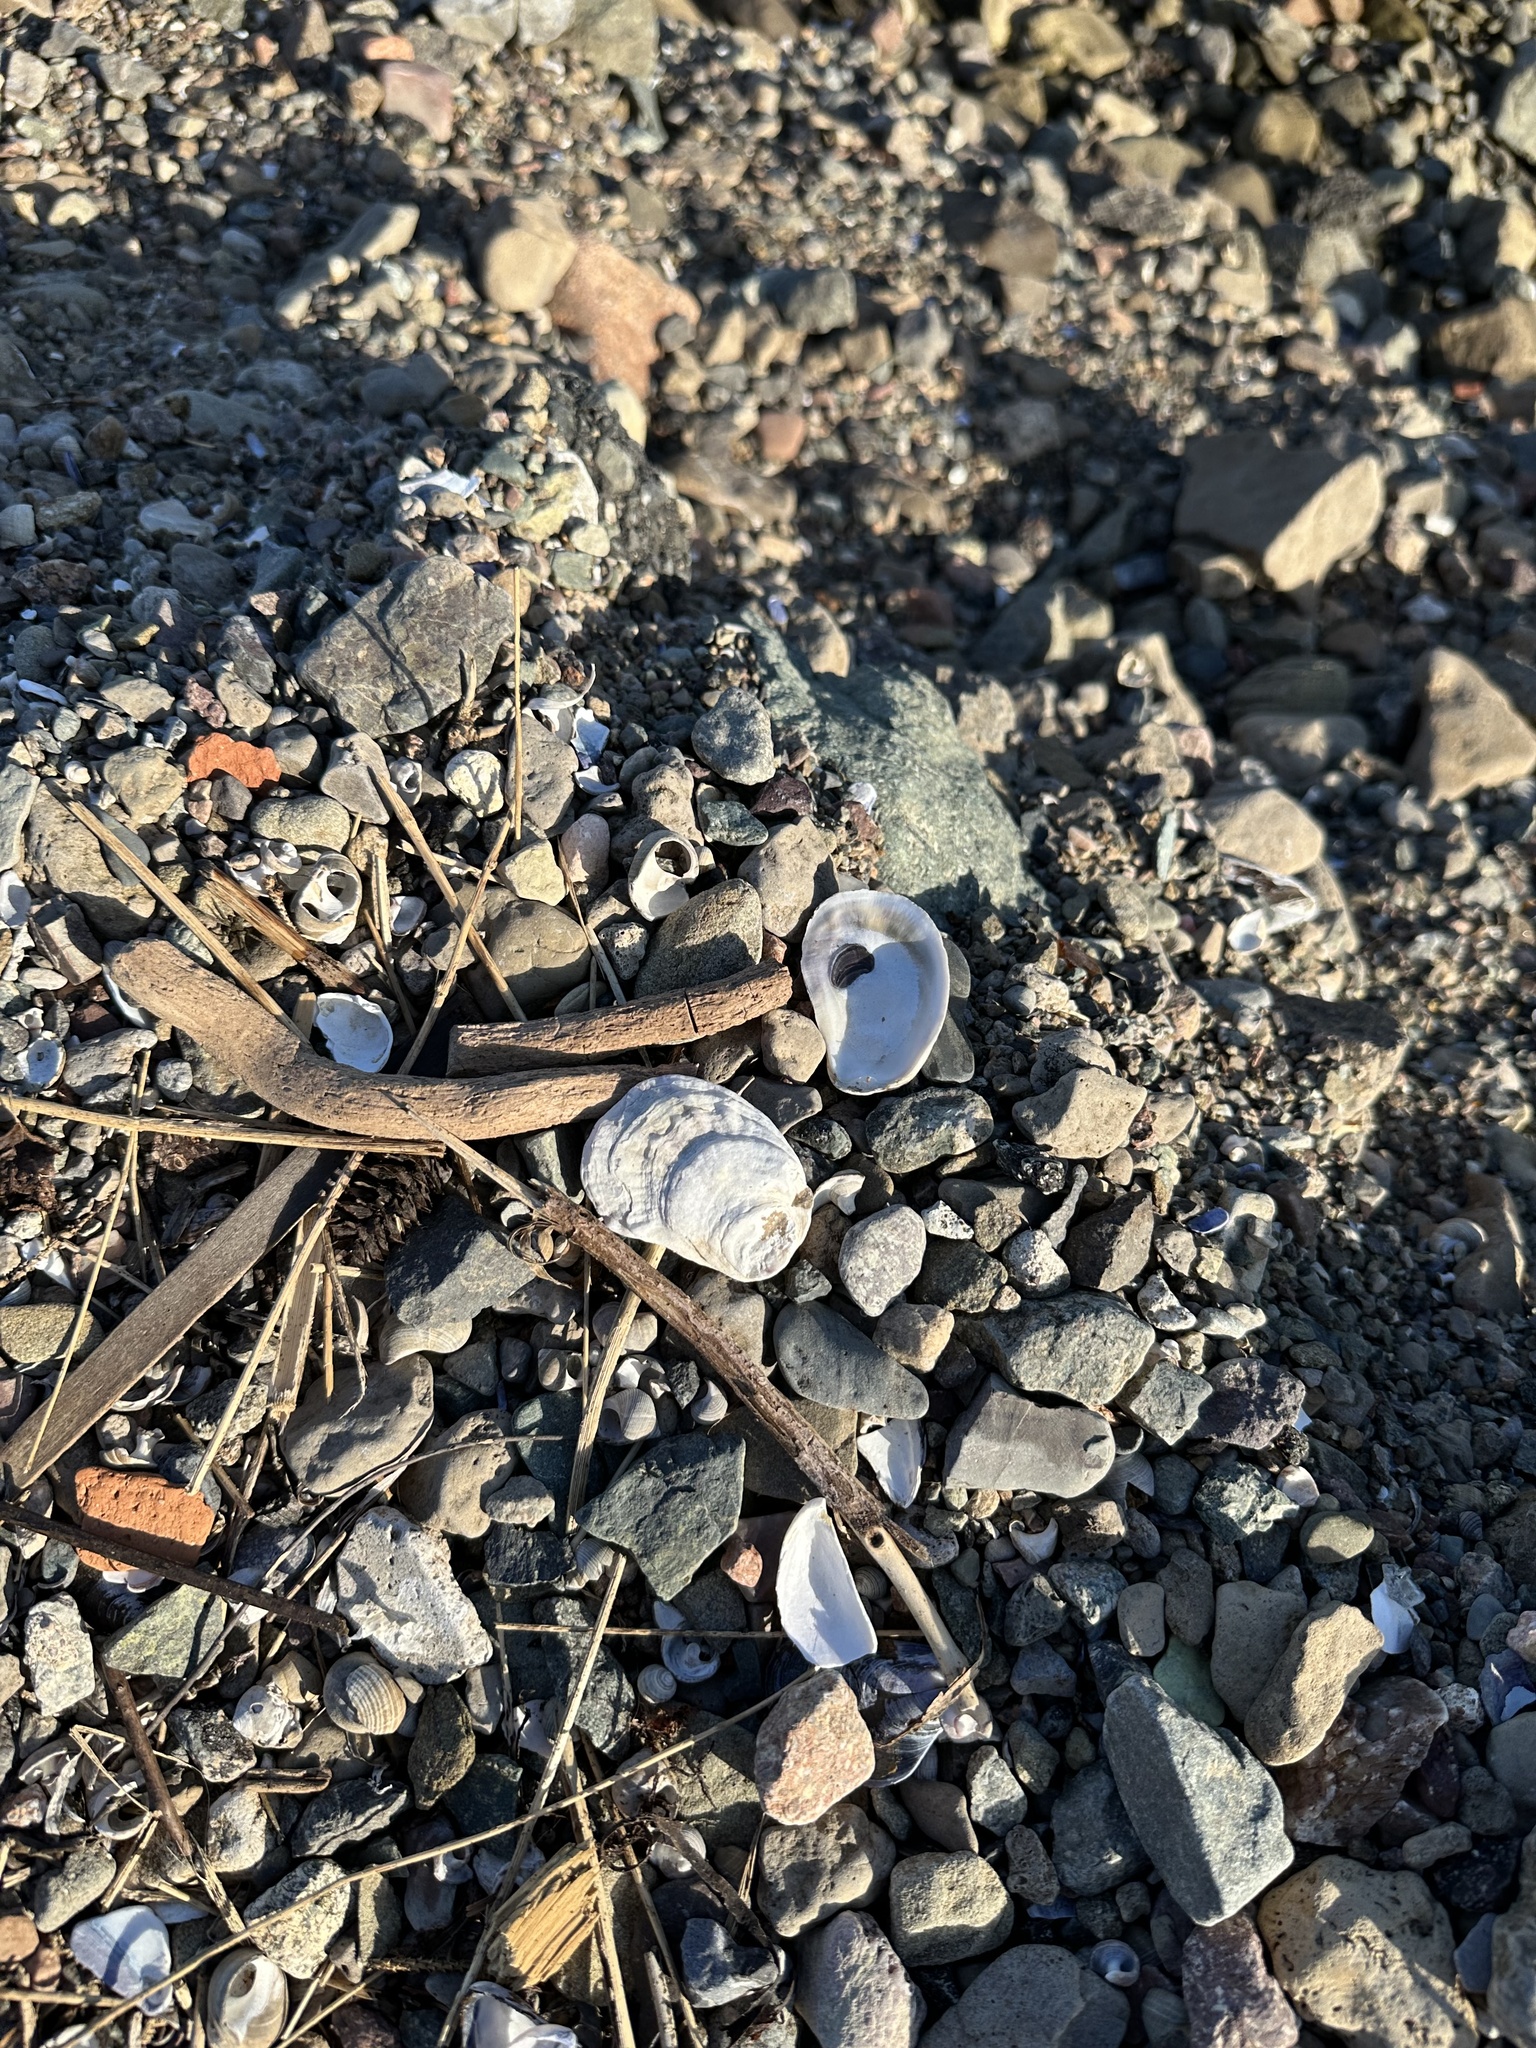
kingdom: Animalia
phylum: Mollusca
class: Bivalvia
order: Ostreida
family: Ostreidae
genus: Crassostrea
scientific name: Crassostrea virginica
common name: American oyster
